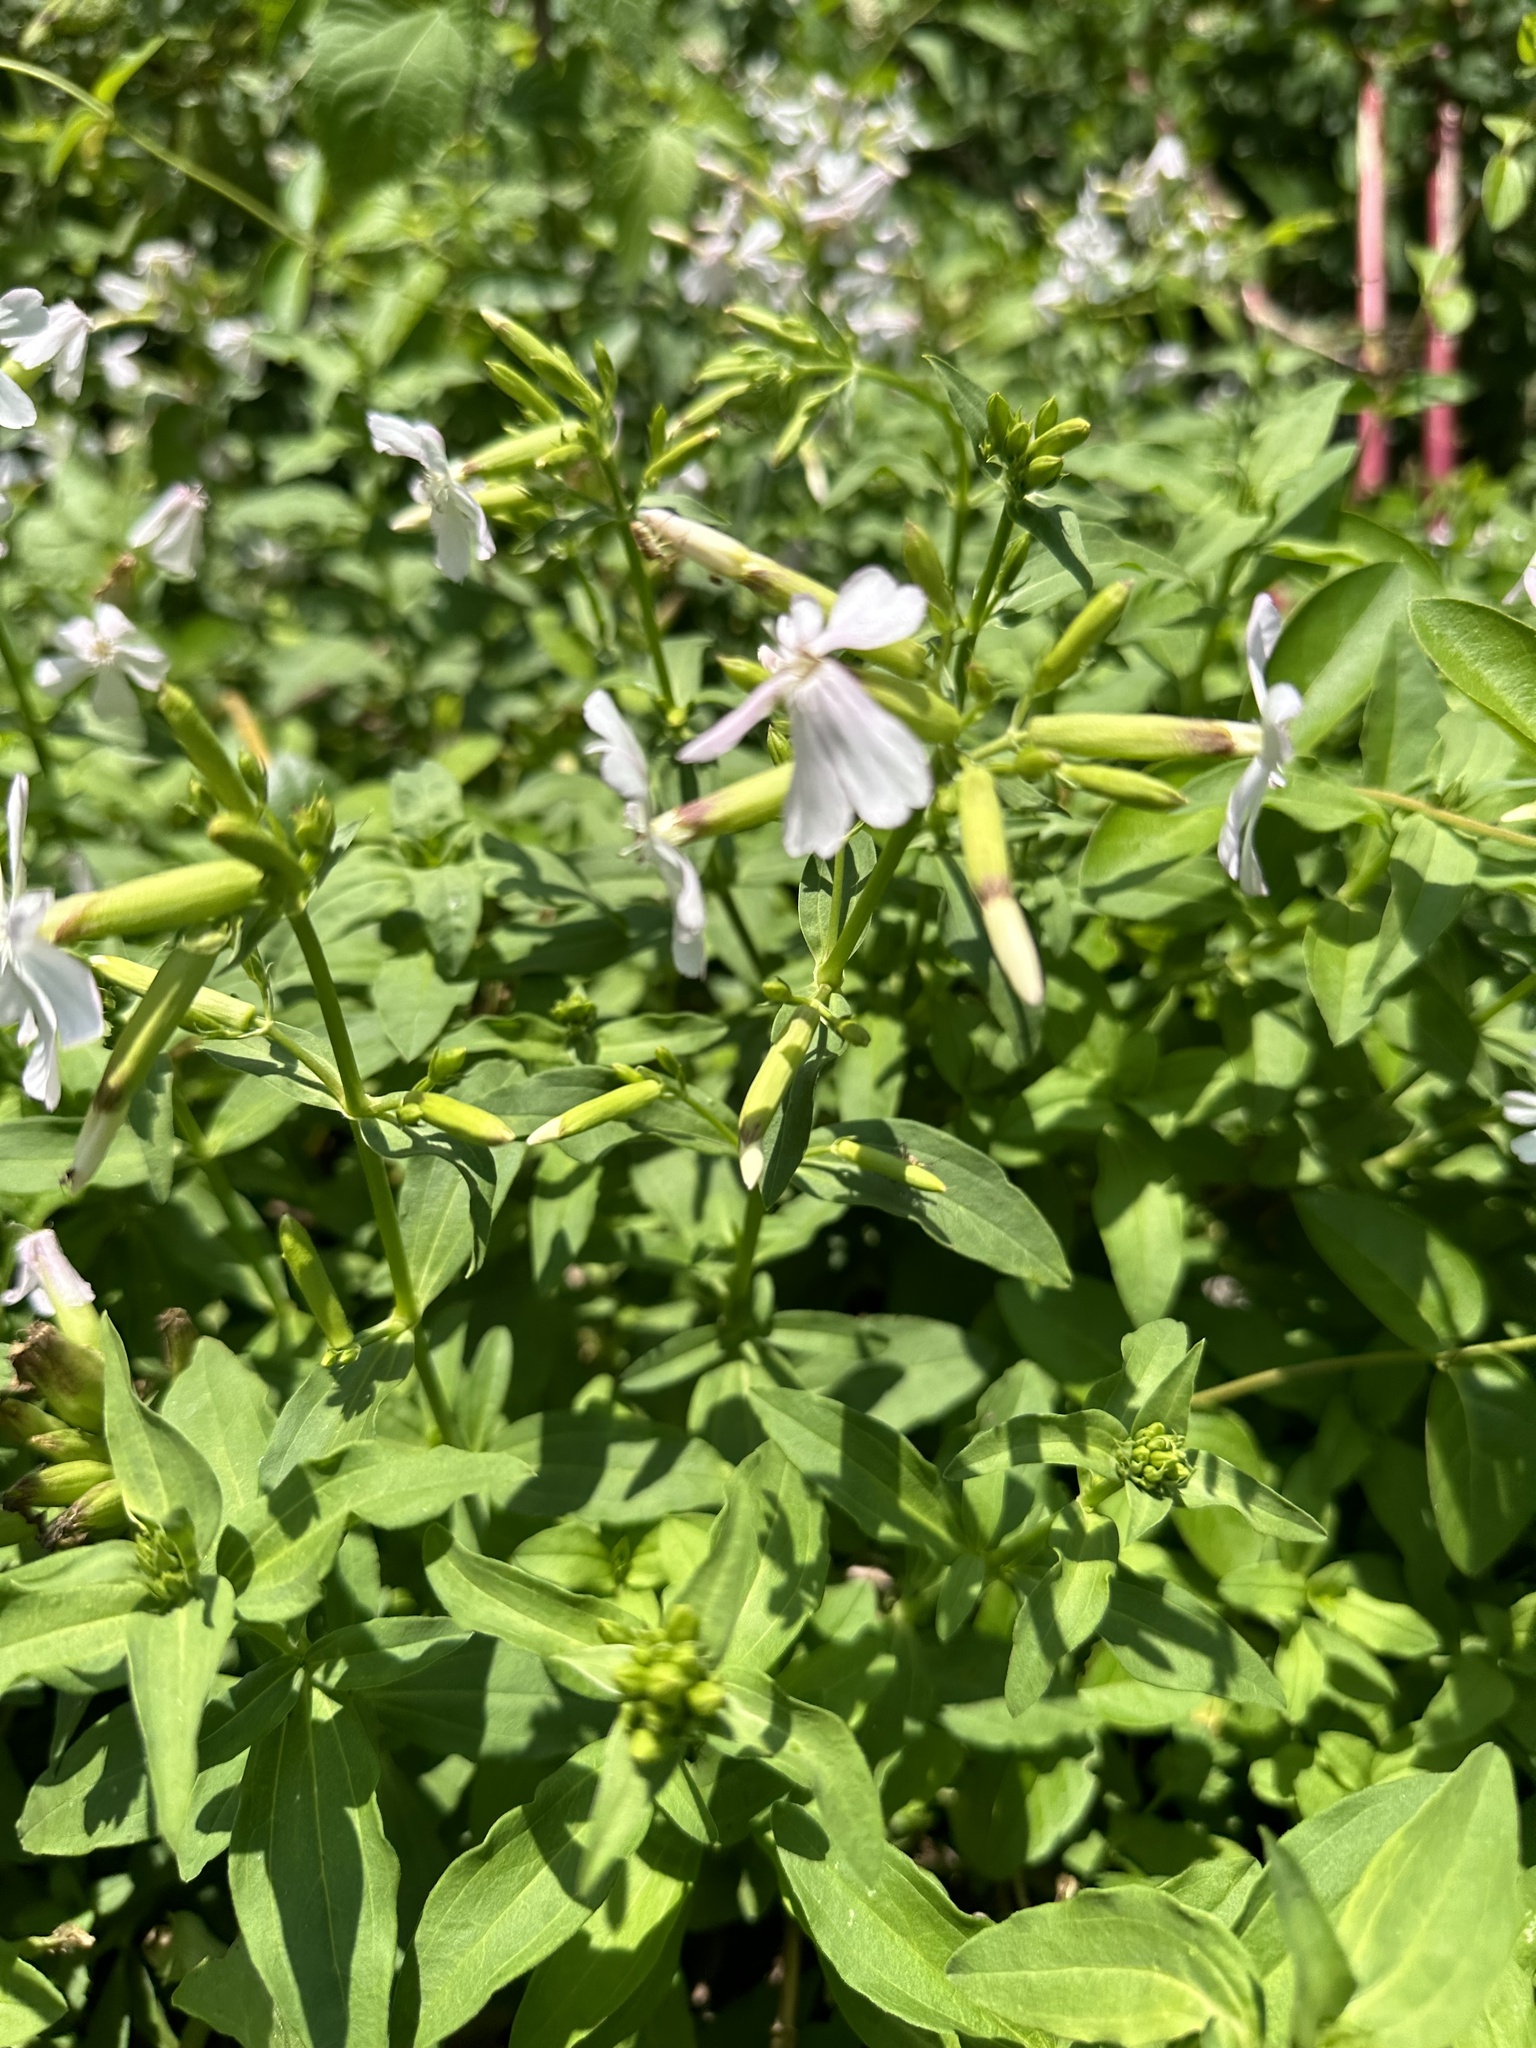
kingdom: Plantae
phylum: Tracheophyta
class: Magnoliopsida
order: Caryophyllales
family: Caryophyllaceae
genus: Saponaria
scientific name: Saponaria officinalis
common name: Soapwort
